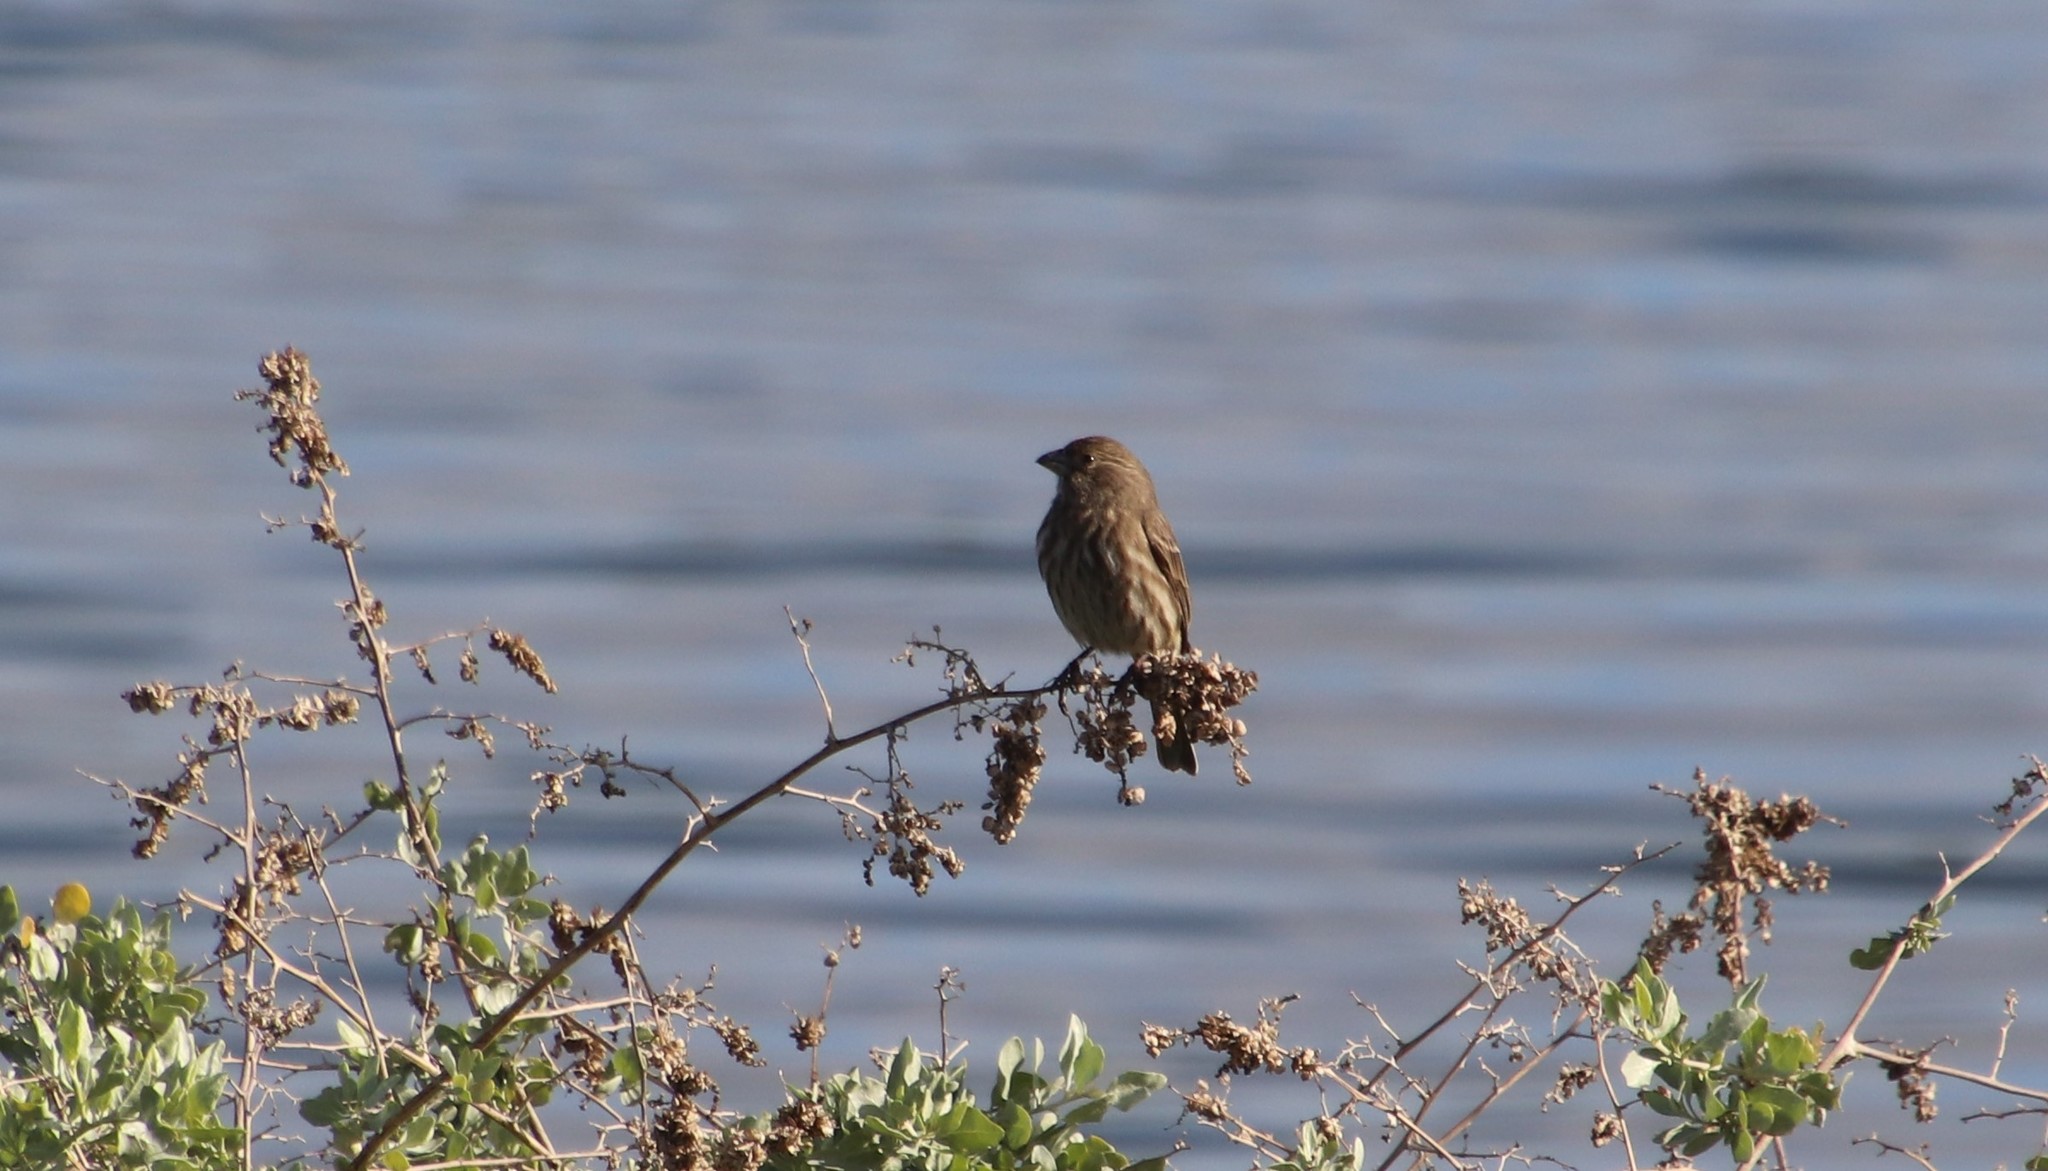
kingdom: Animalia
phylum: Chordata
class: Aves
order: Passeriformes
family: Fringillidae
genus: Haemorhous
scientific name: Haemorhous mexicanus
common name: House finch
